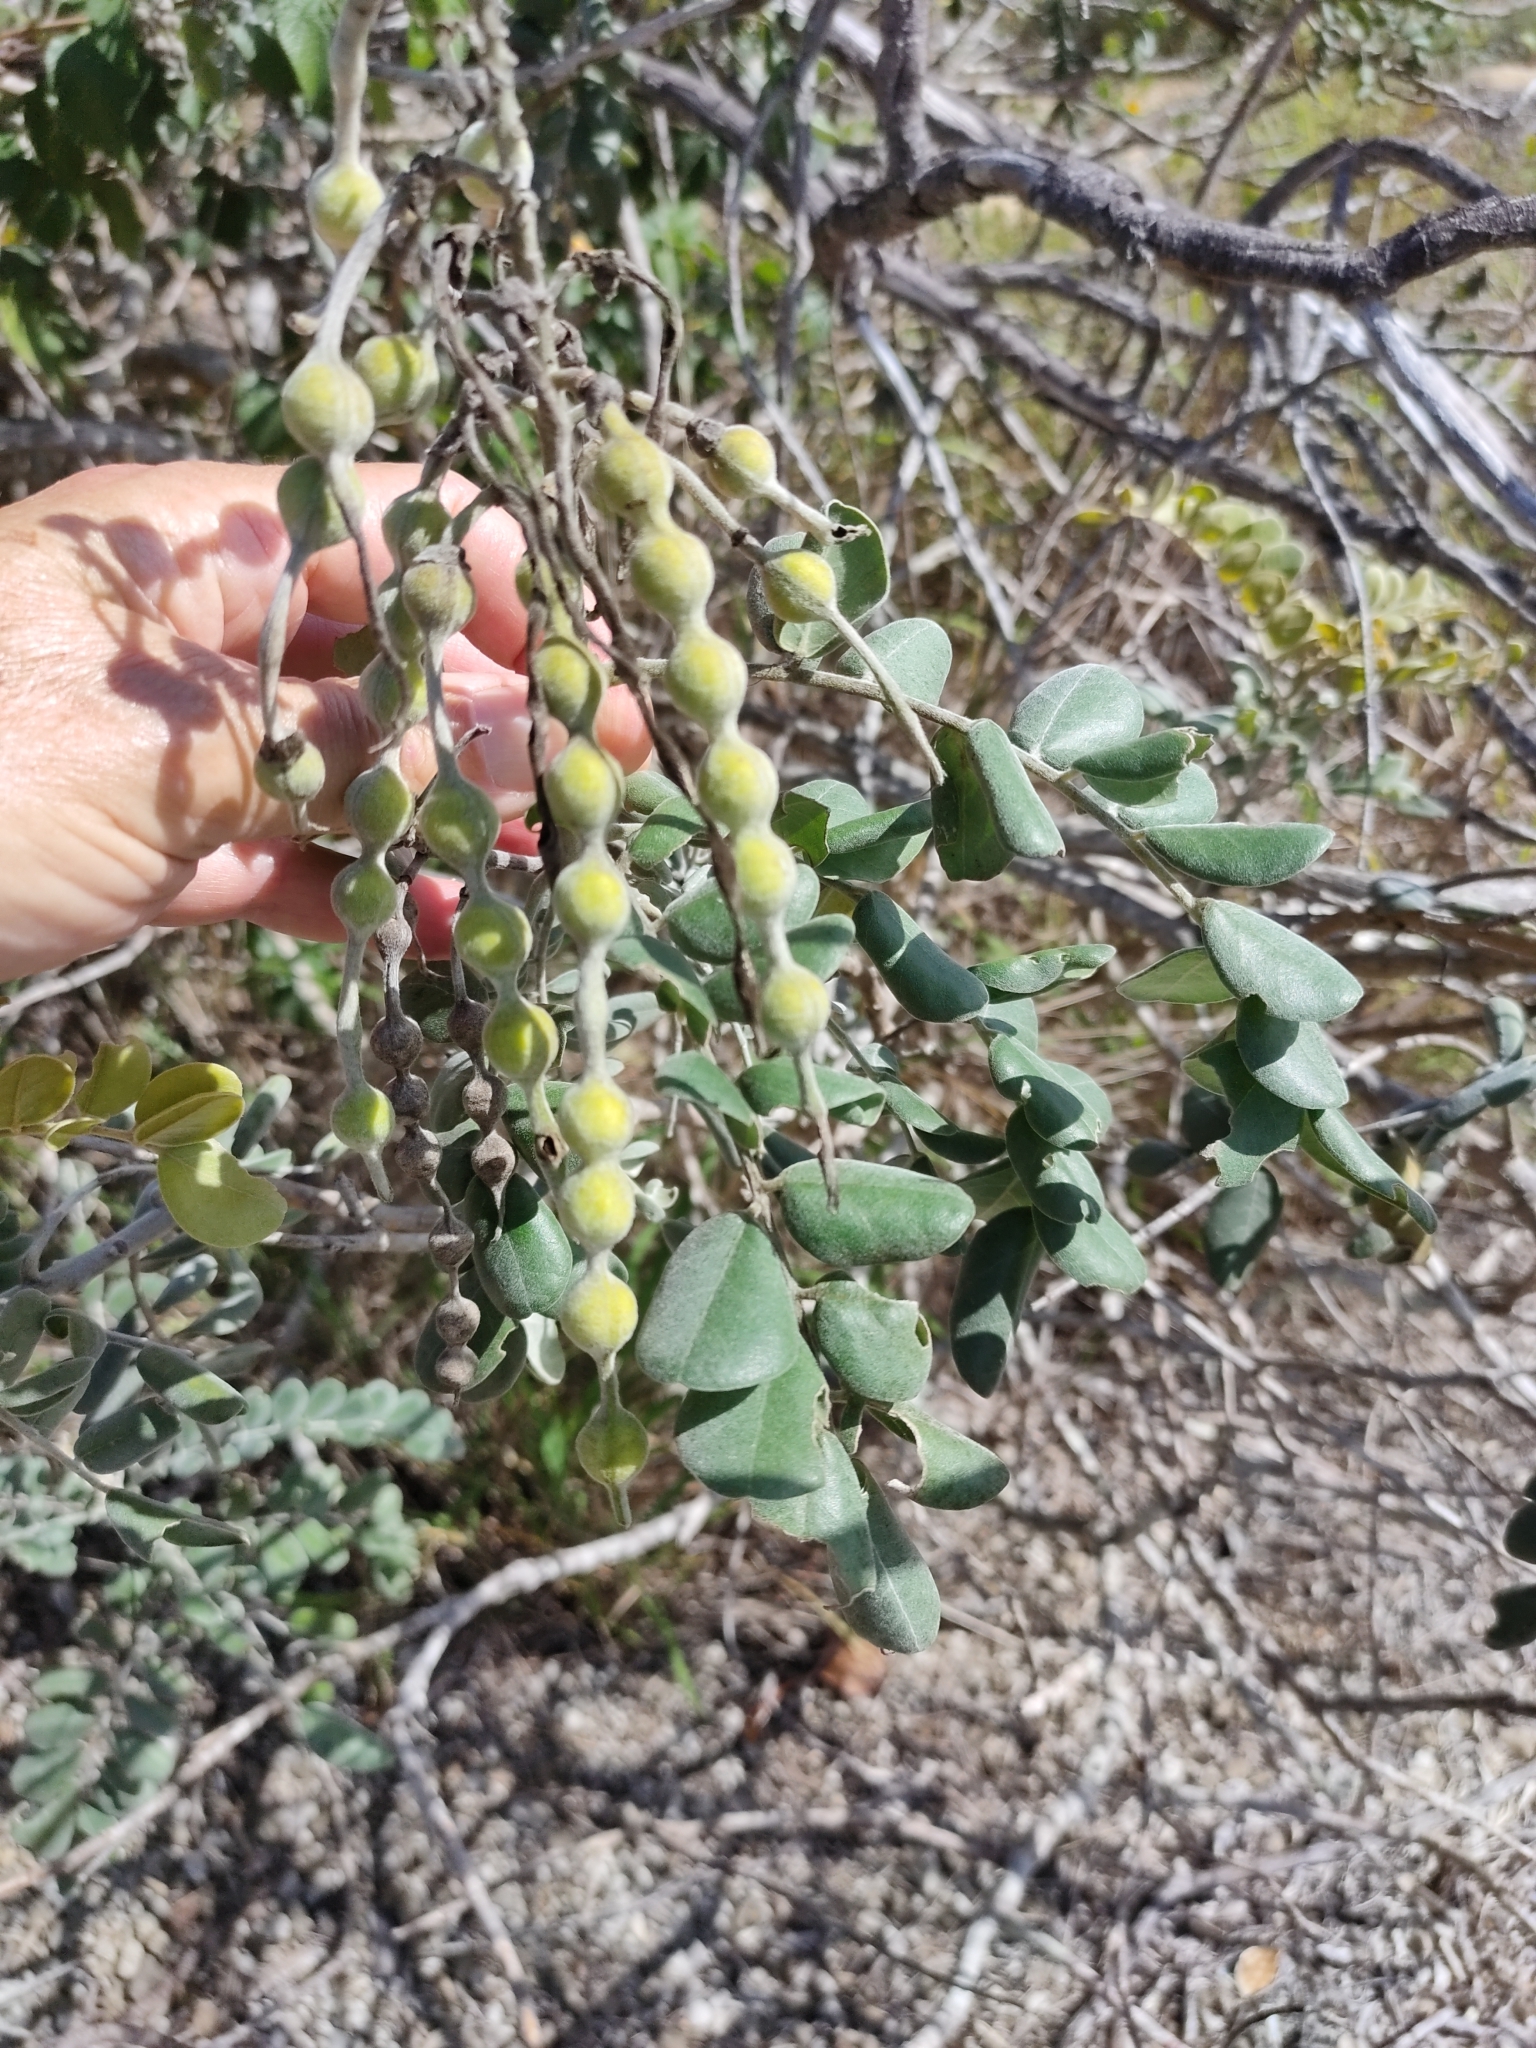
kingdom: Plantae
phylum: Tracheophyta
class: Magnoliopsida
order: Fabales
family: Fabaceae
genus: Sophora
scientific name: Sophora tomentosa
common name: Yellow necklacepod
